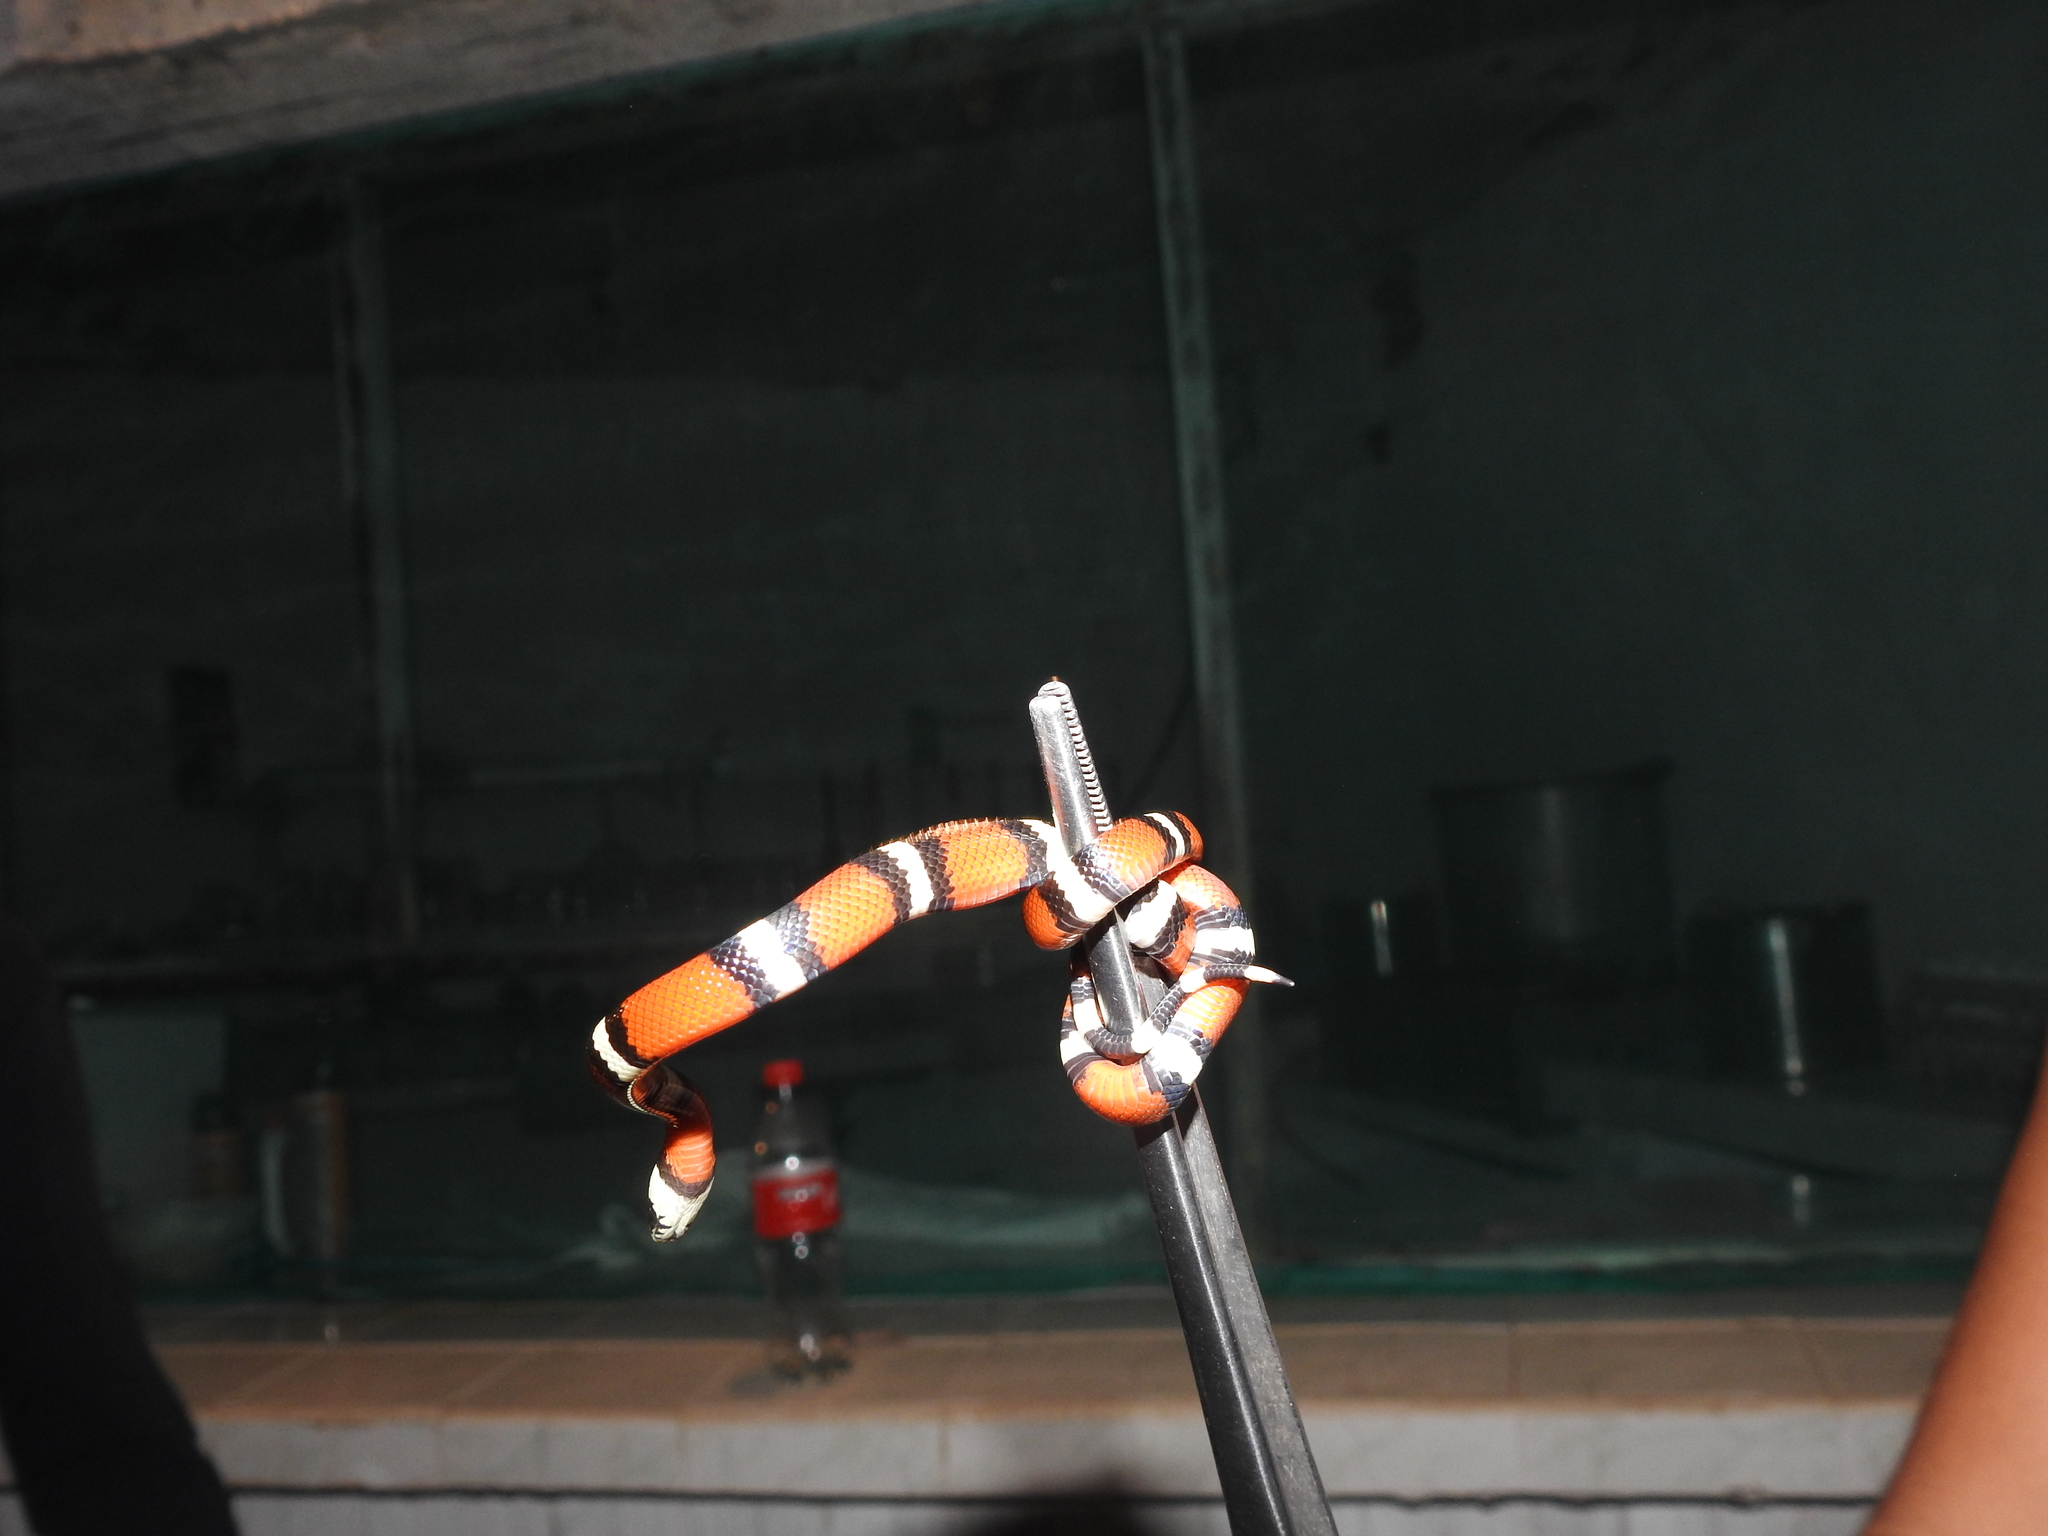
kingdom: Animalia
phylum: Chordata
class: Squamata
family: Colubridae
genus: Lampropeltis
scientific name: Lampropeltis polyzona
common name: Atlantic central american milksnake
